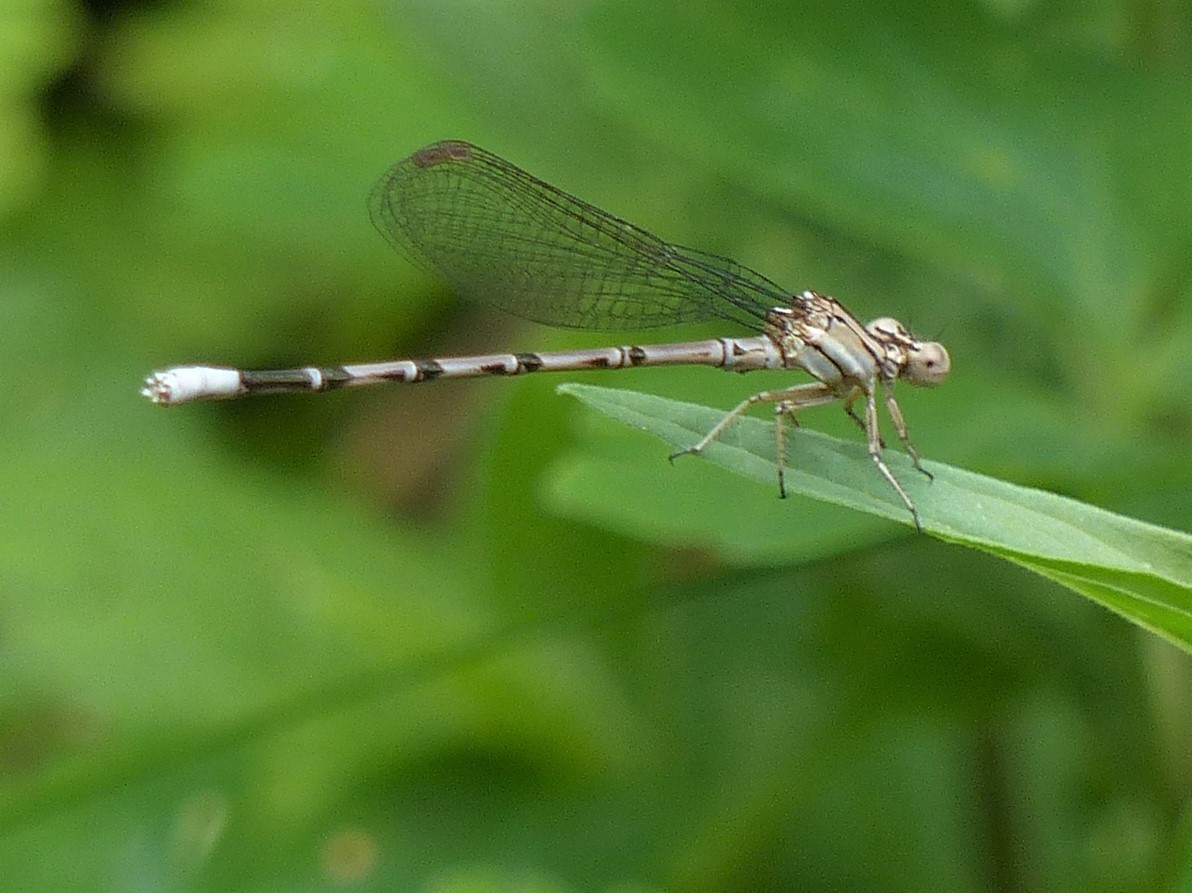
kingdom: Animalia
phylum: Arthropoda
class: Insecta
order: Odonata
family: Coenagrionidae
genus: Argia
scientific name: Argia funebris
